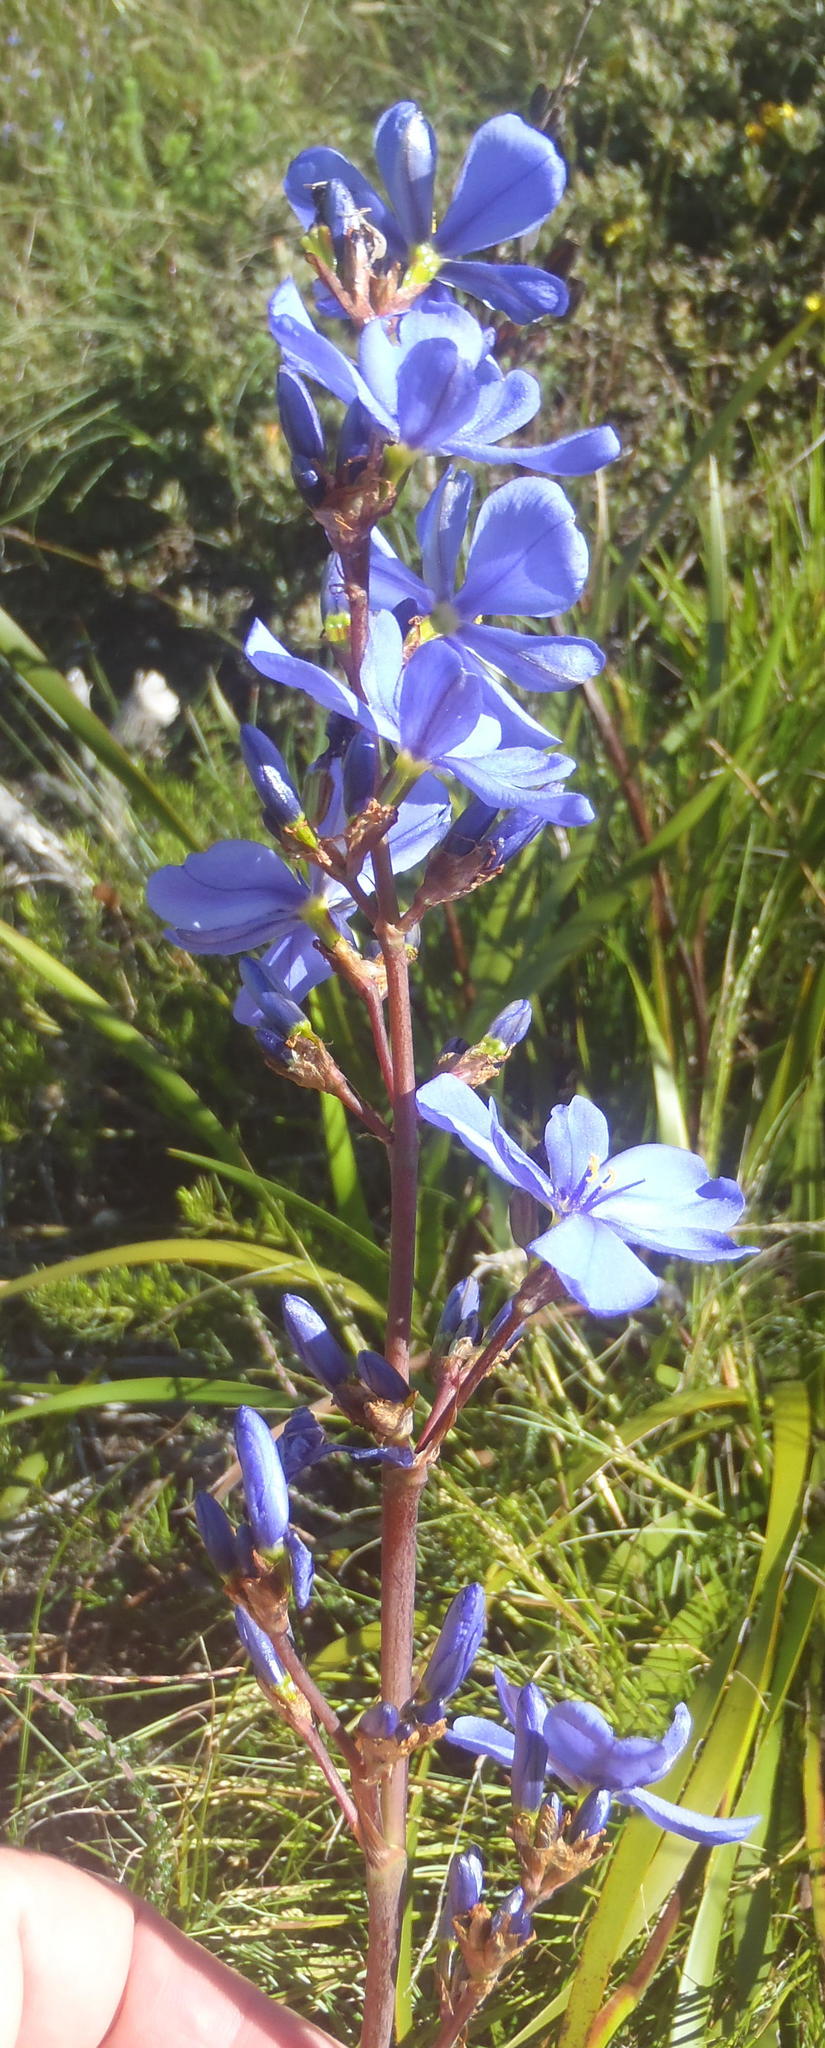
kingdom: Plantae
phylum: Tracheophyta
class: Liliopsida
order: Asparagales
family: Iridaceae
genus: Aristea
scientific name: Aristea bakeri
